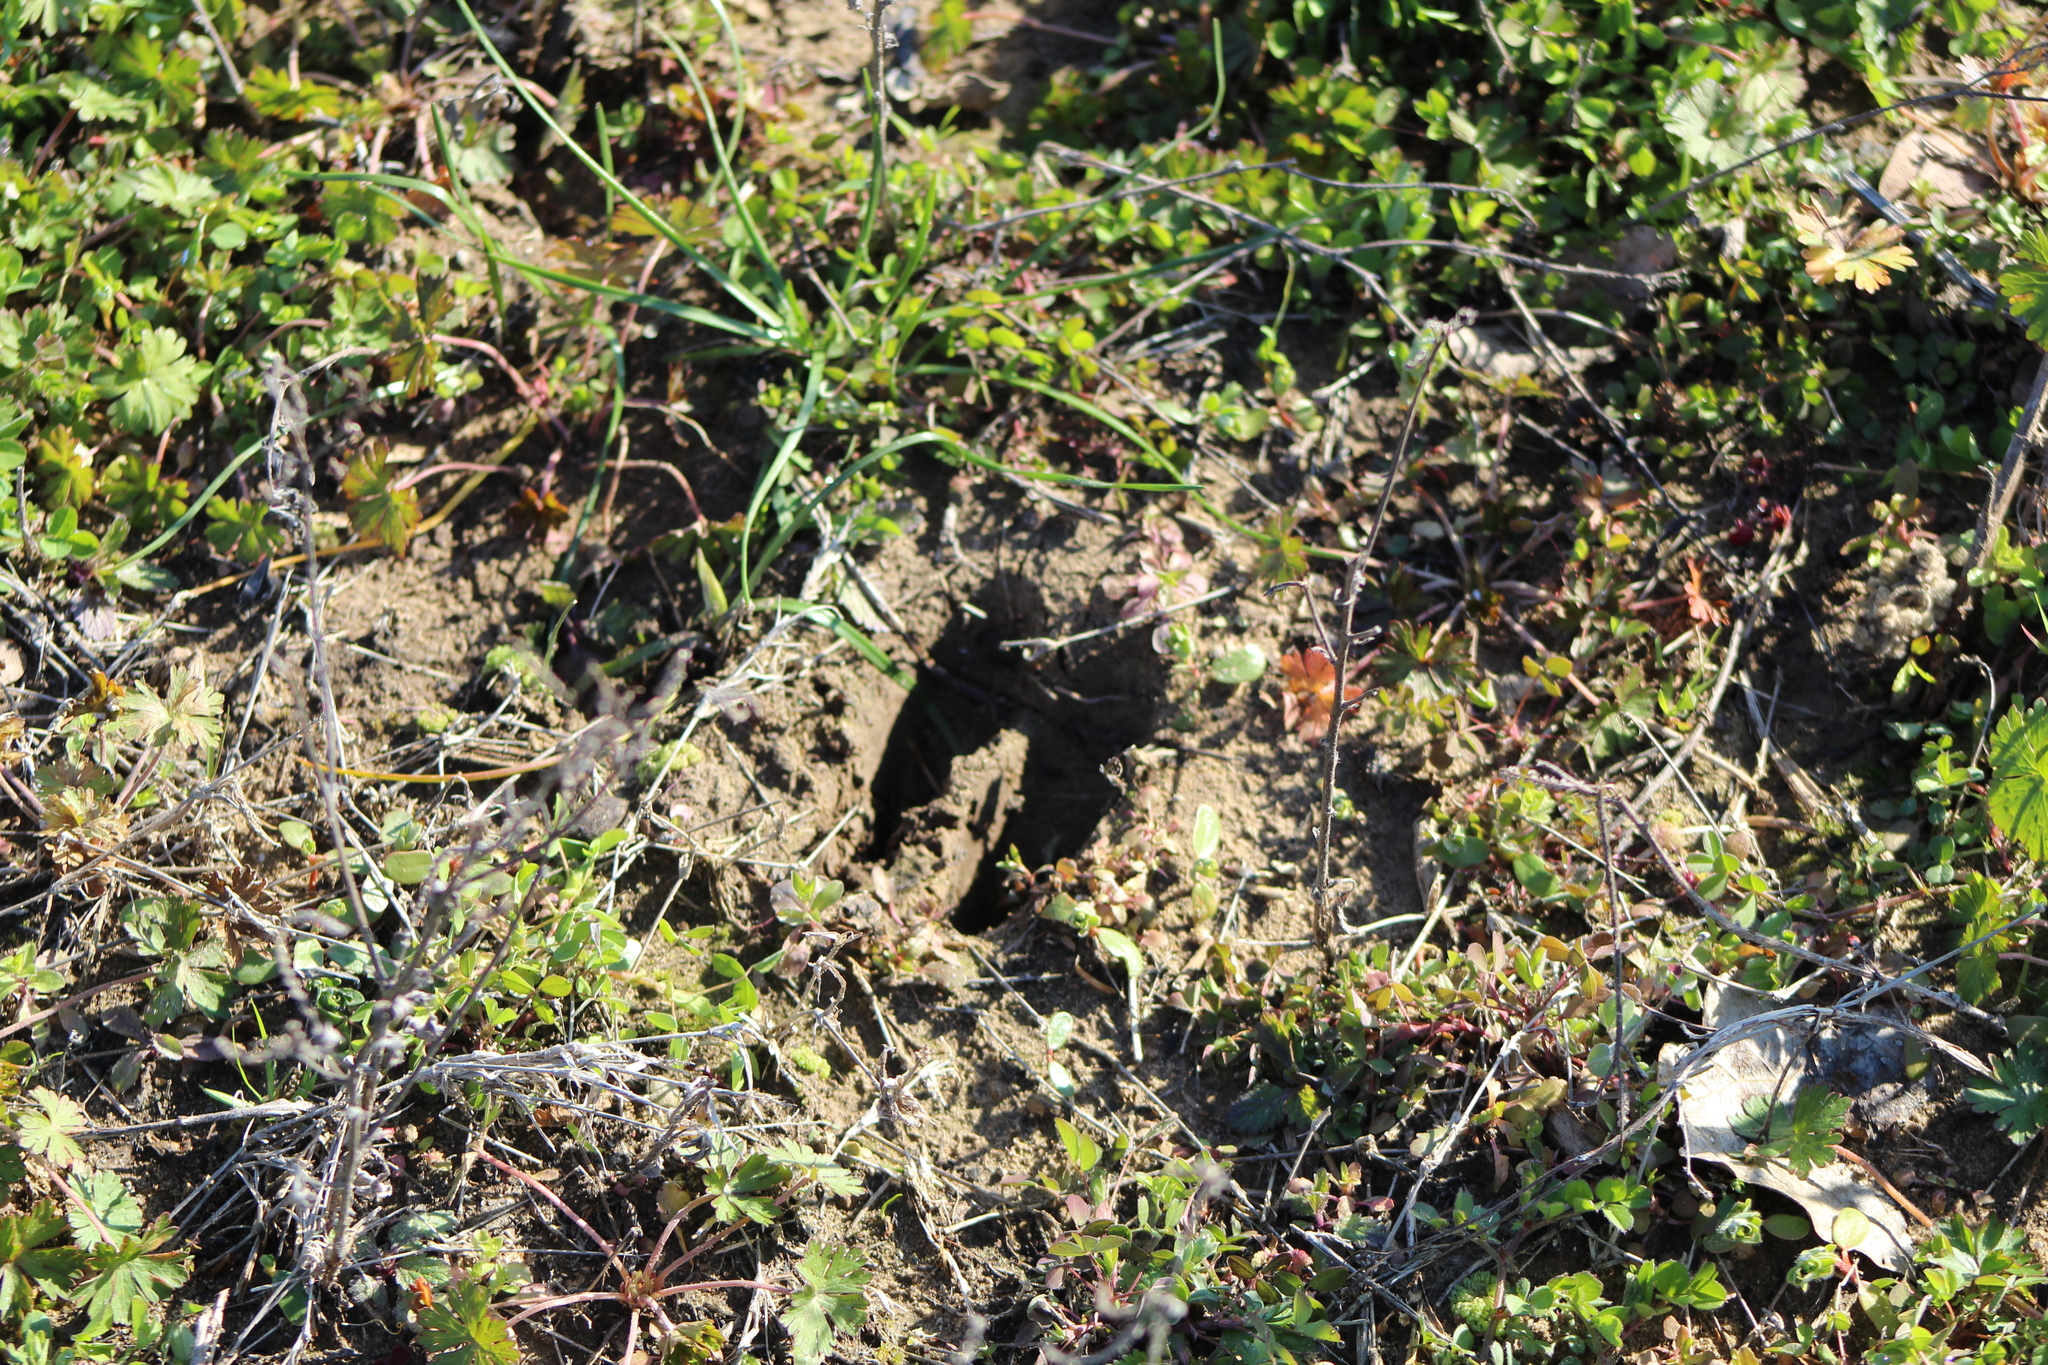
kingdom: Animalia
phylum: Chordata
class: Mammalia
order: Artiodactyla
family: Cervidae
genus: Odocoileus
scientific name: Odocoileus virginianus
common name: White-tailed deer
